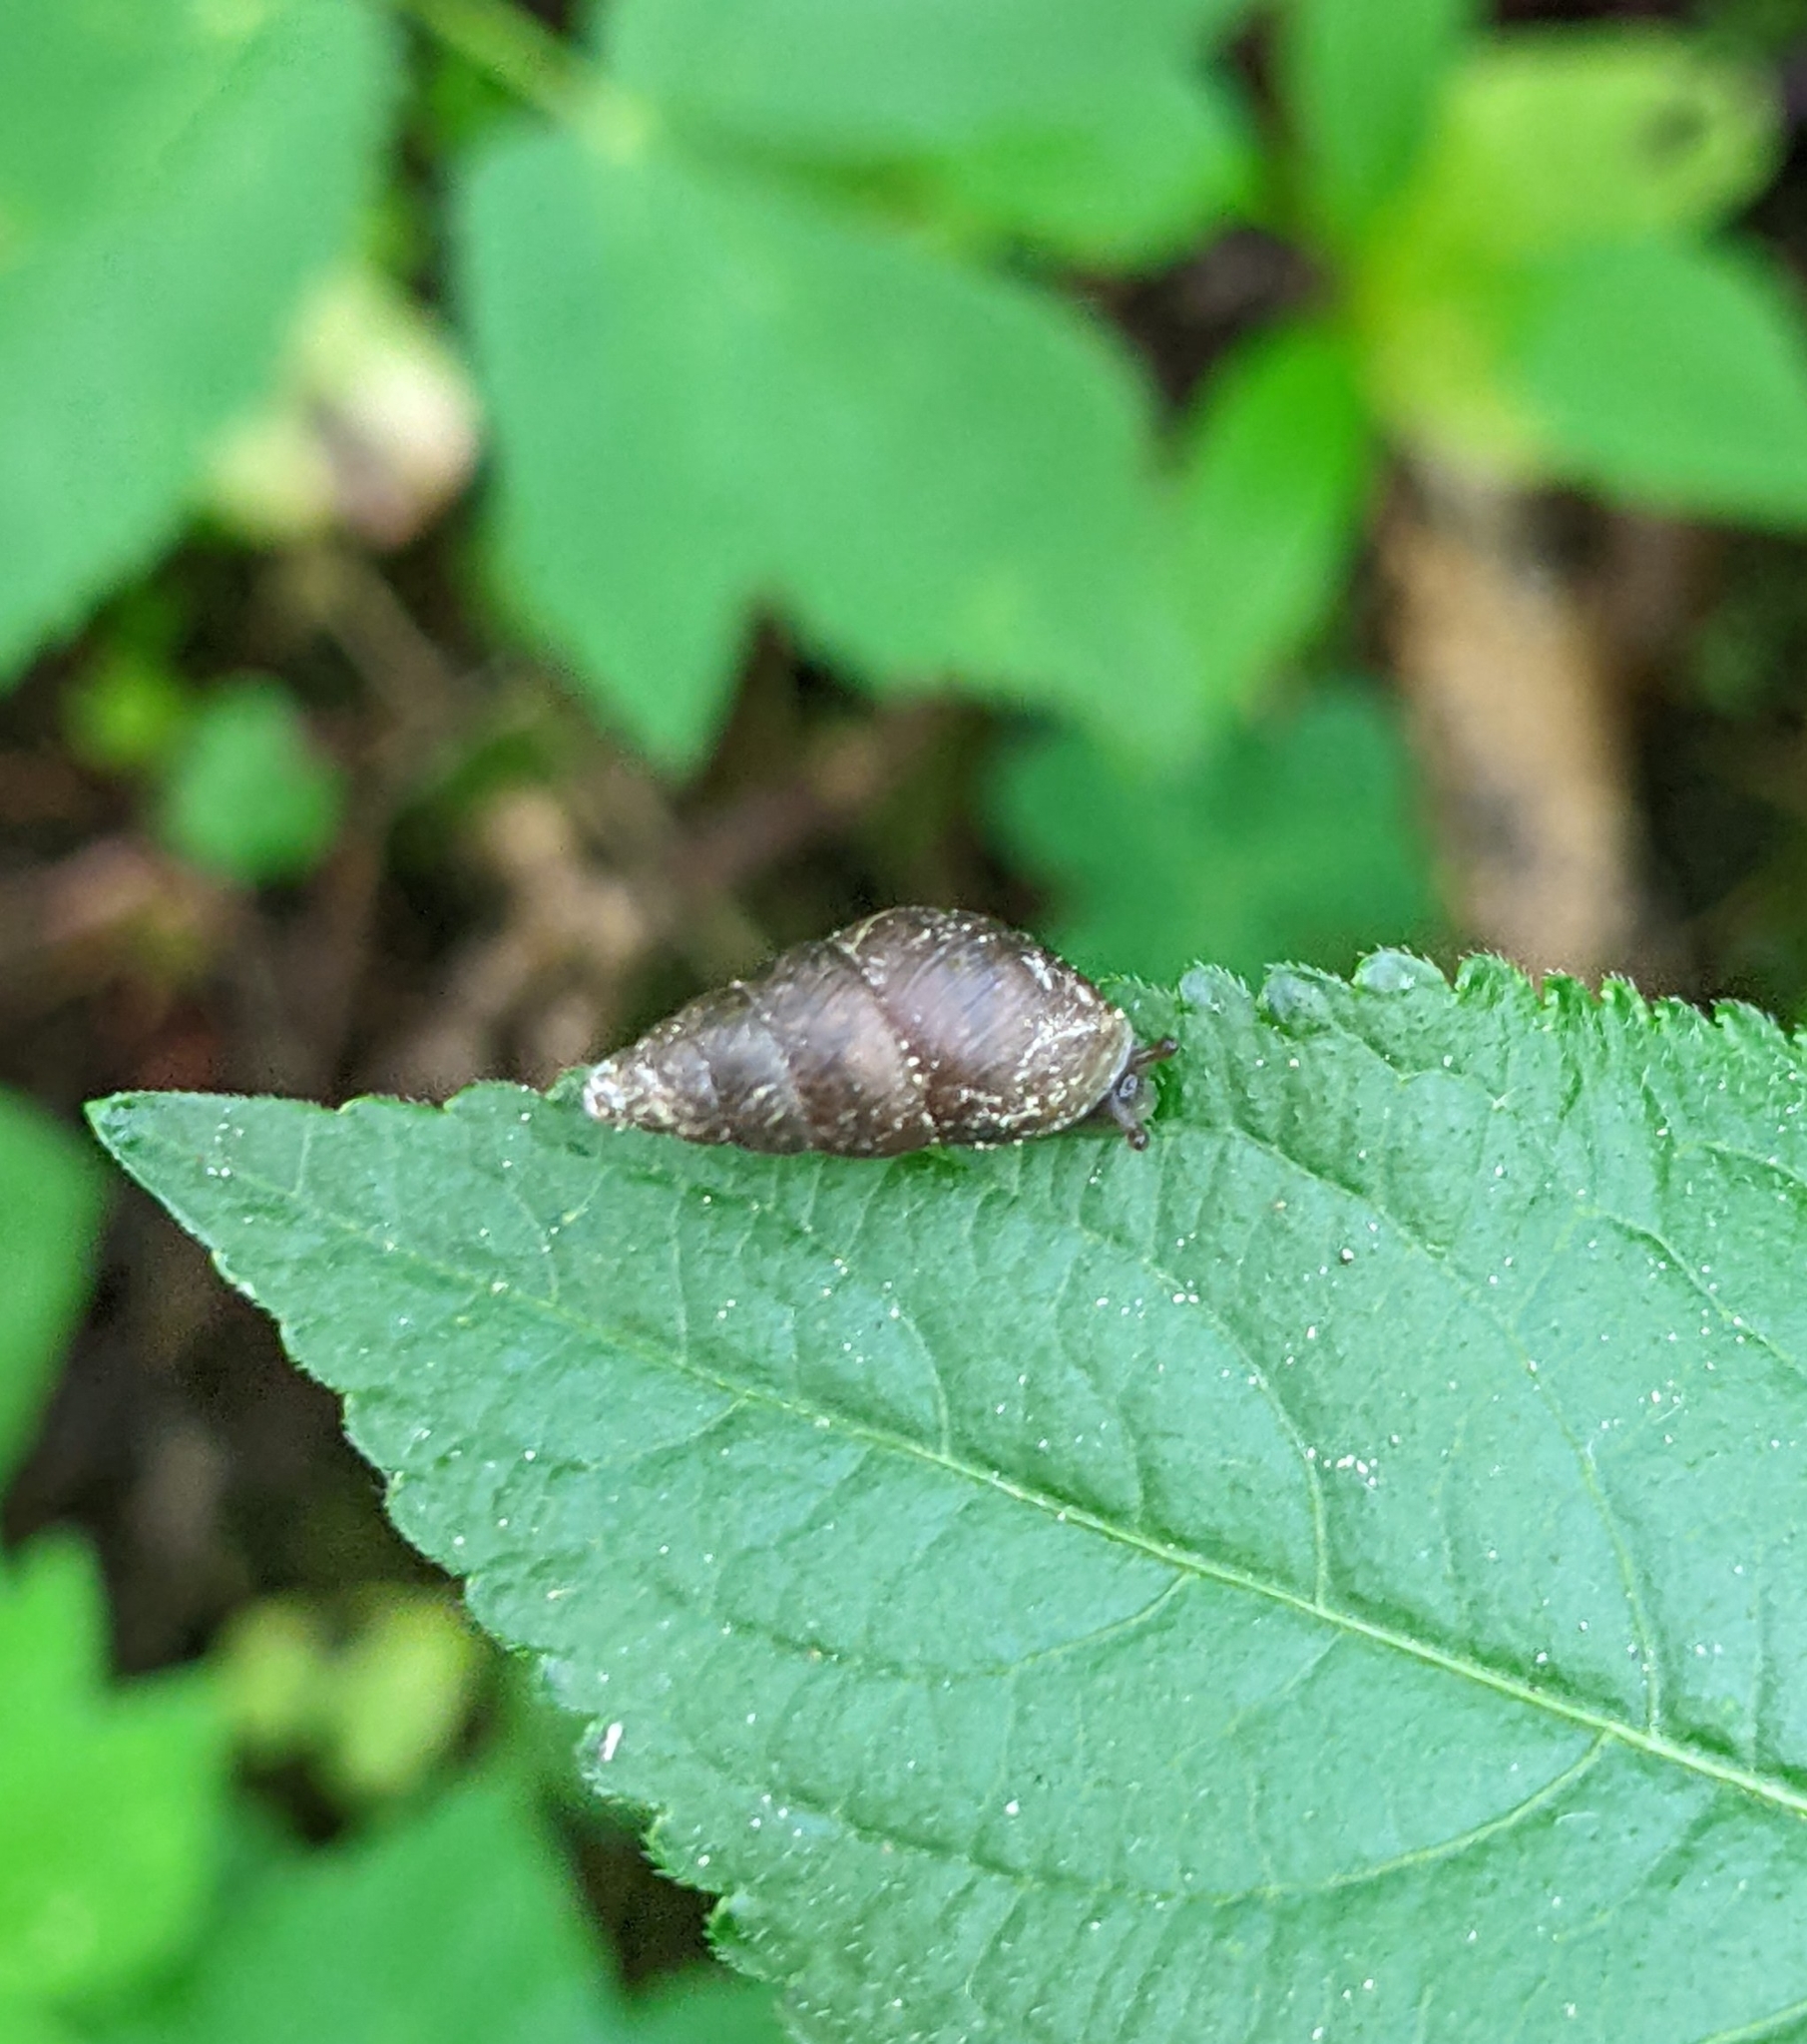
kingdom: Animalia
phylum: Mollusca
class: Gastropoda
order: Stylommatophora
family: Enidae
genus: Ena
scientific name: Ena montana
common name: Mountain bulin
